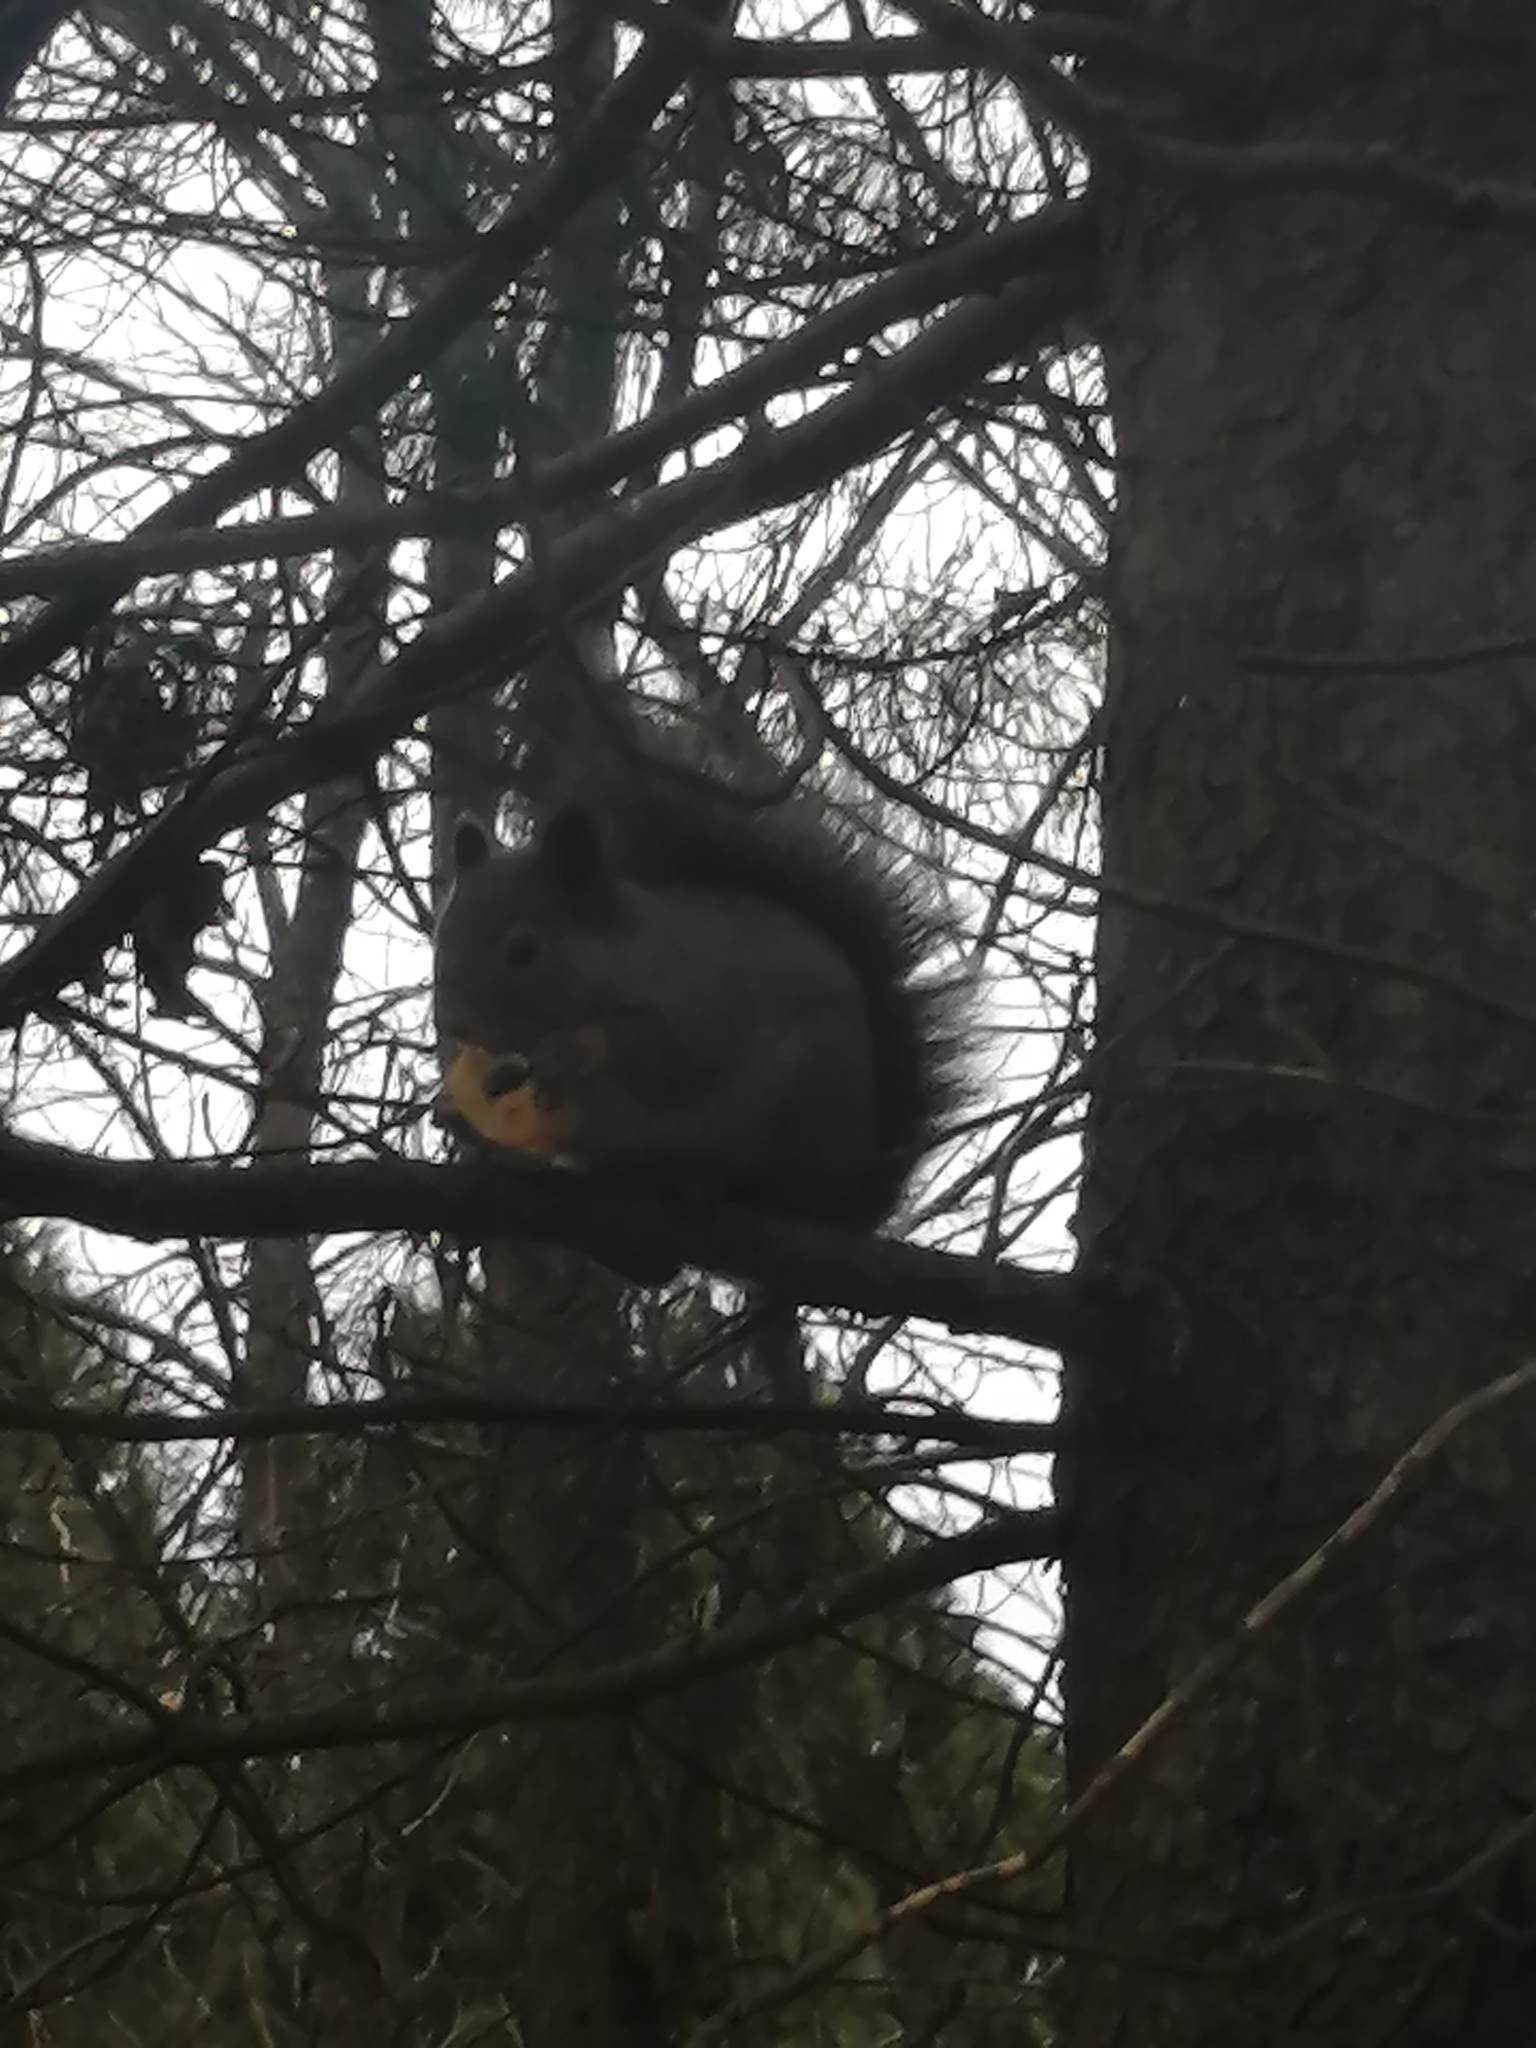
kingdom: Animalia
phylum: Chordata
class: Mammalia
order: Rodentia
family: Sciuridae
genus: Sciurus
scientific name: Sciurus vulgaris
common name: Eurasian red squirrel
